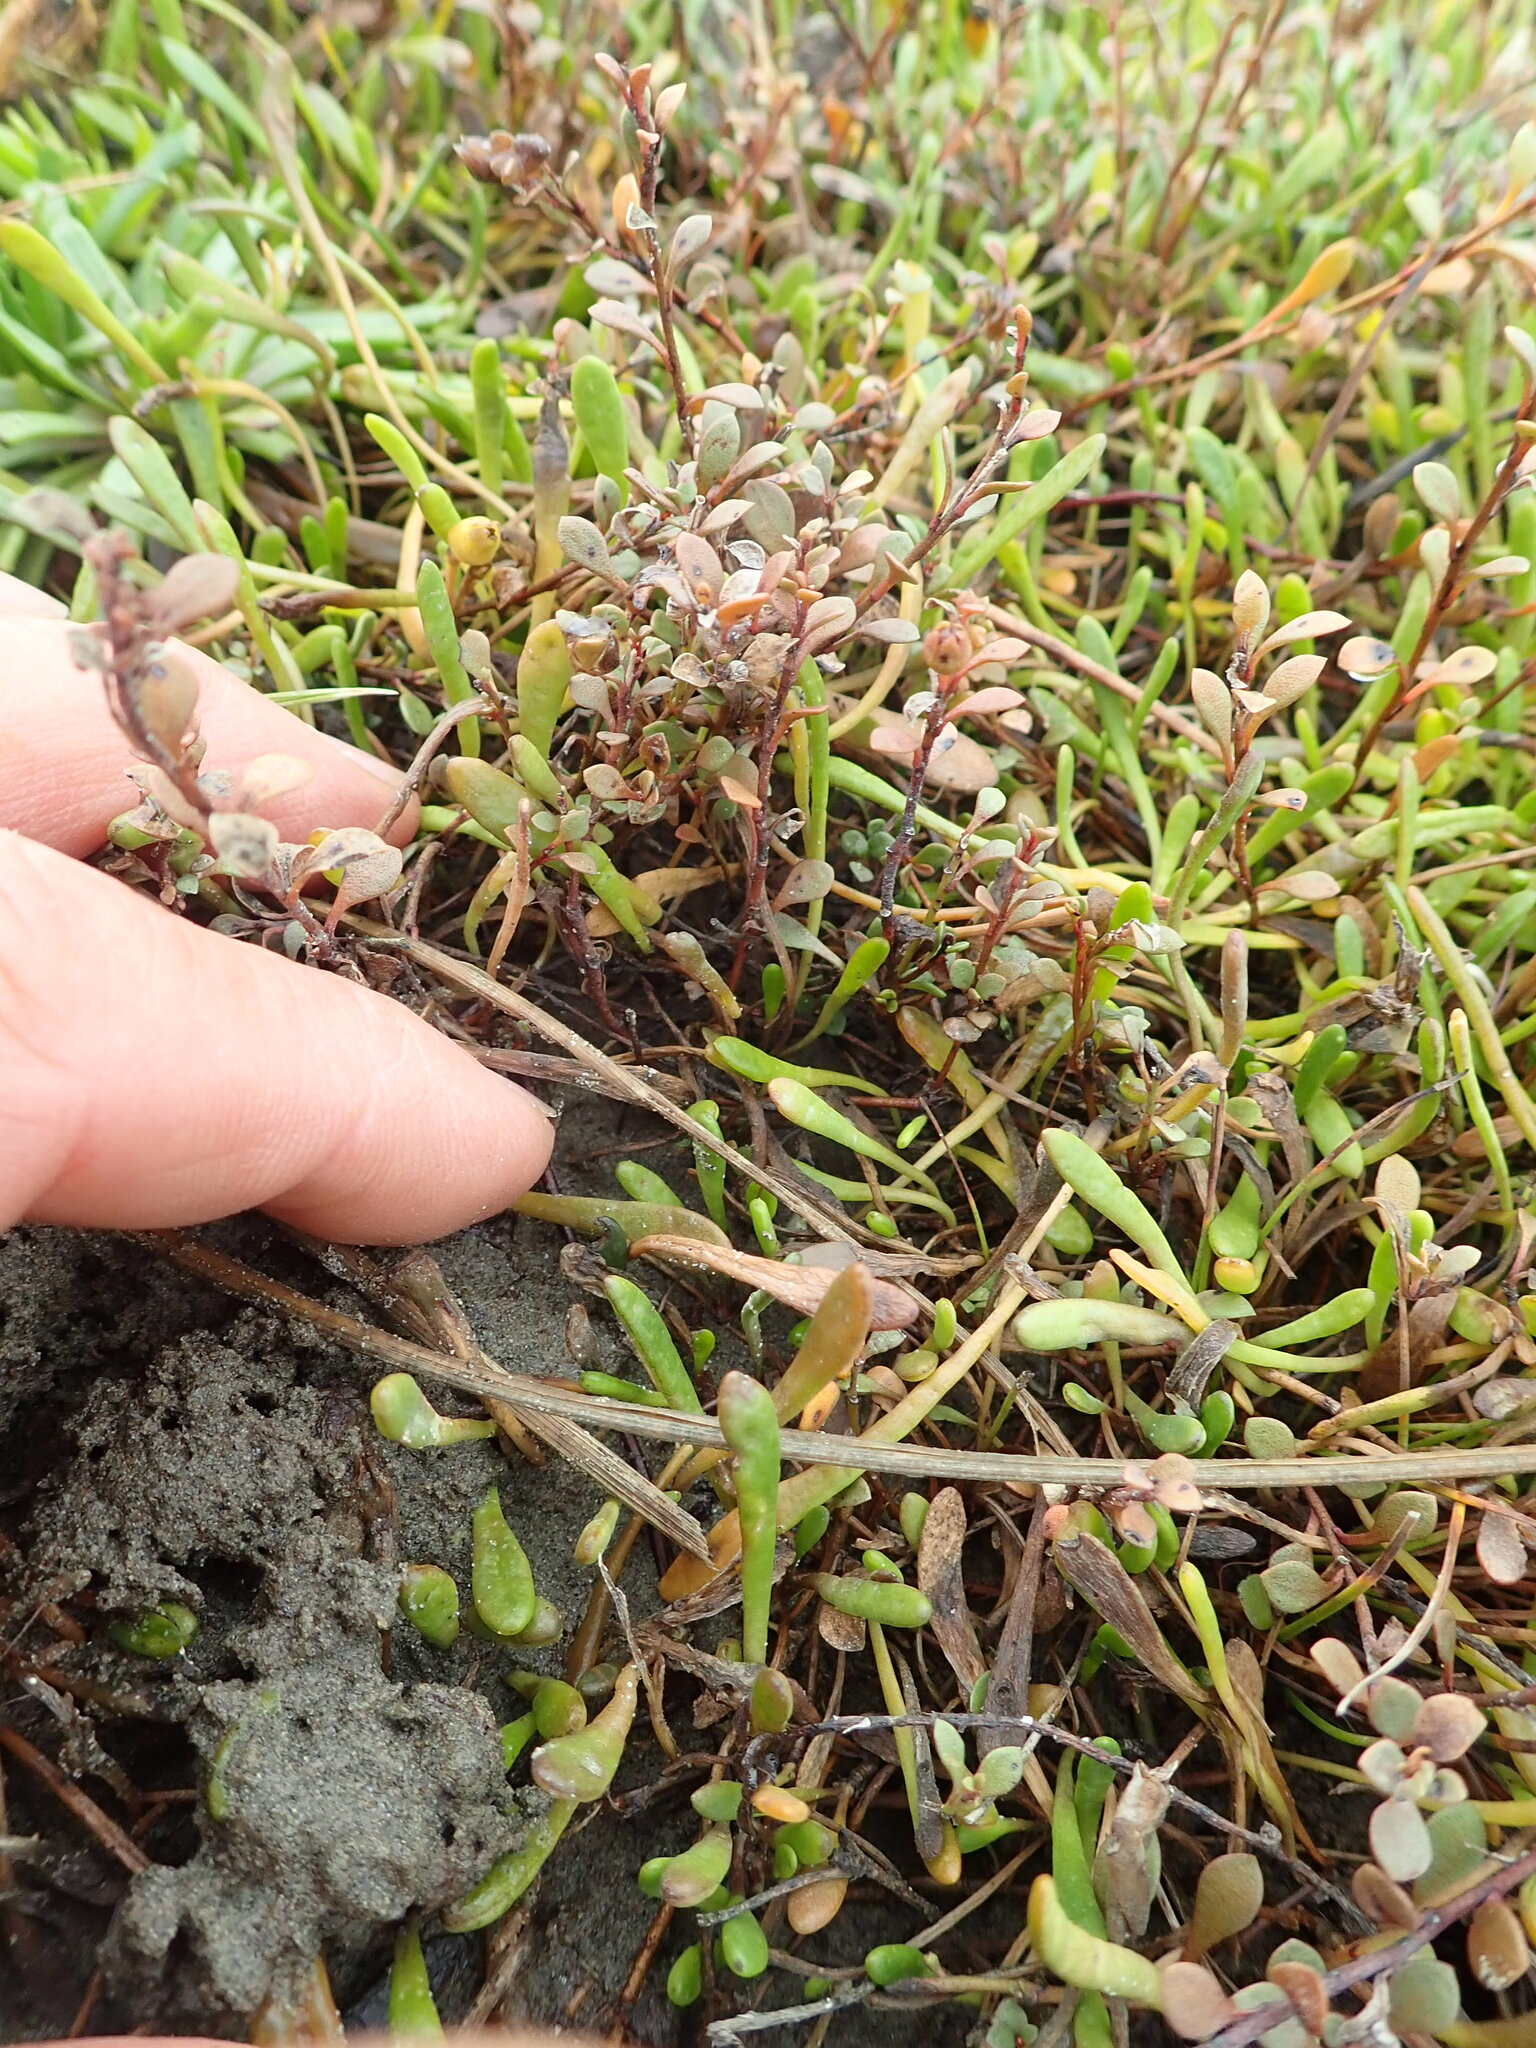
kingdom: Plantae
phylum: Tracheophyta
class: Magnoliopsida
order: Ericales
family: Primulaceae
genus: Samolus
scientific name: Samolus repens
